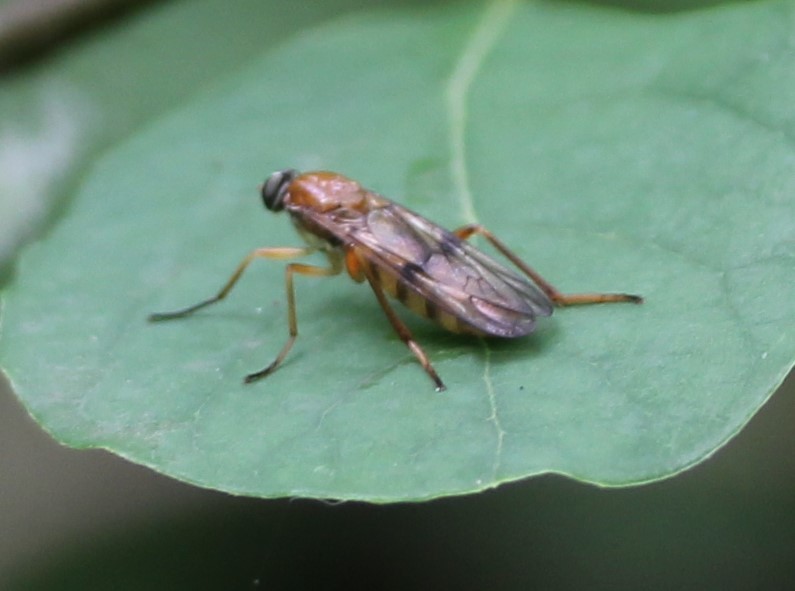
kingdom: Animalia
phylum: Arthropoda
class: Insecta
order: Diptera
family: Xylophagidae
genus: Dialysis
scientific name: Dialysis fasciventris
